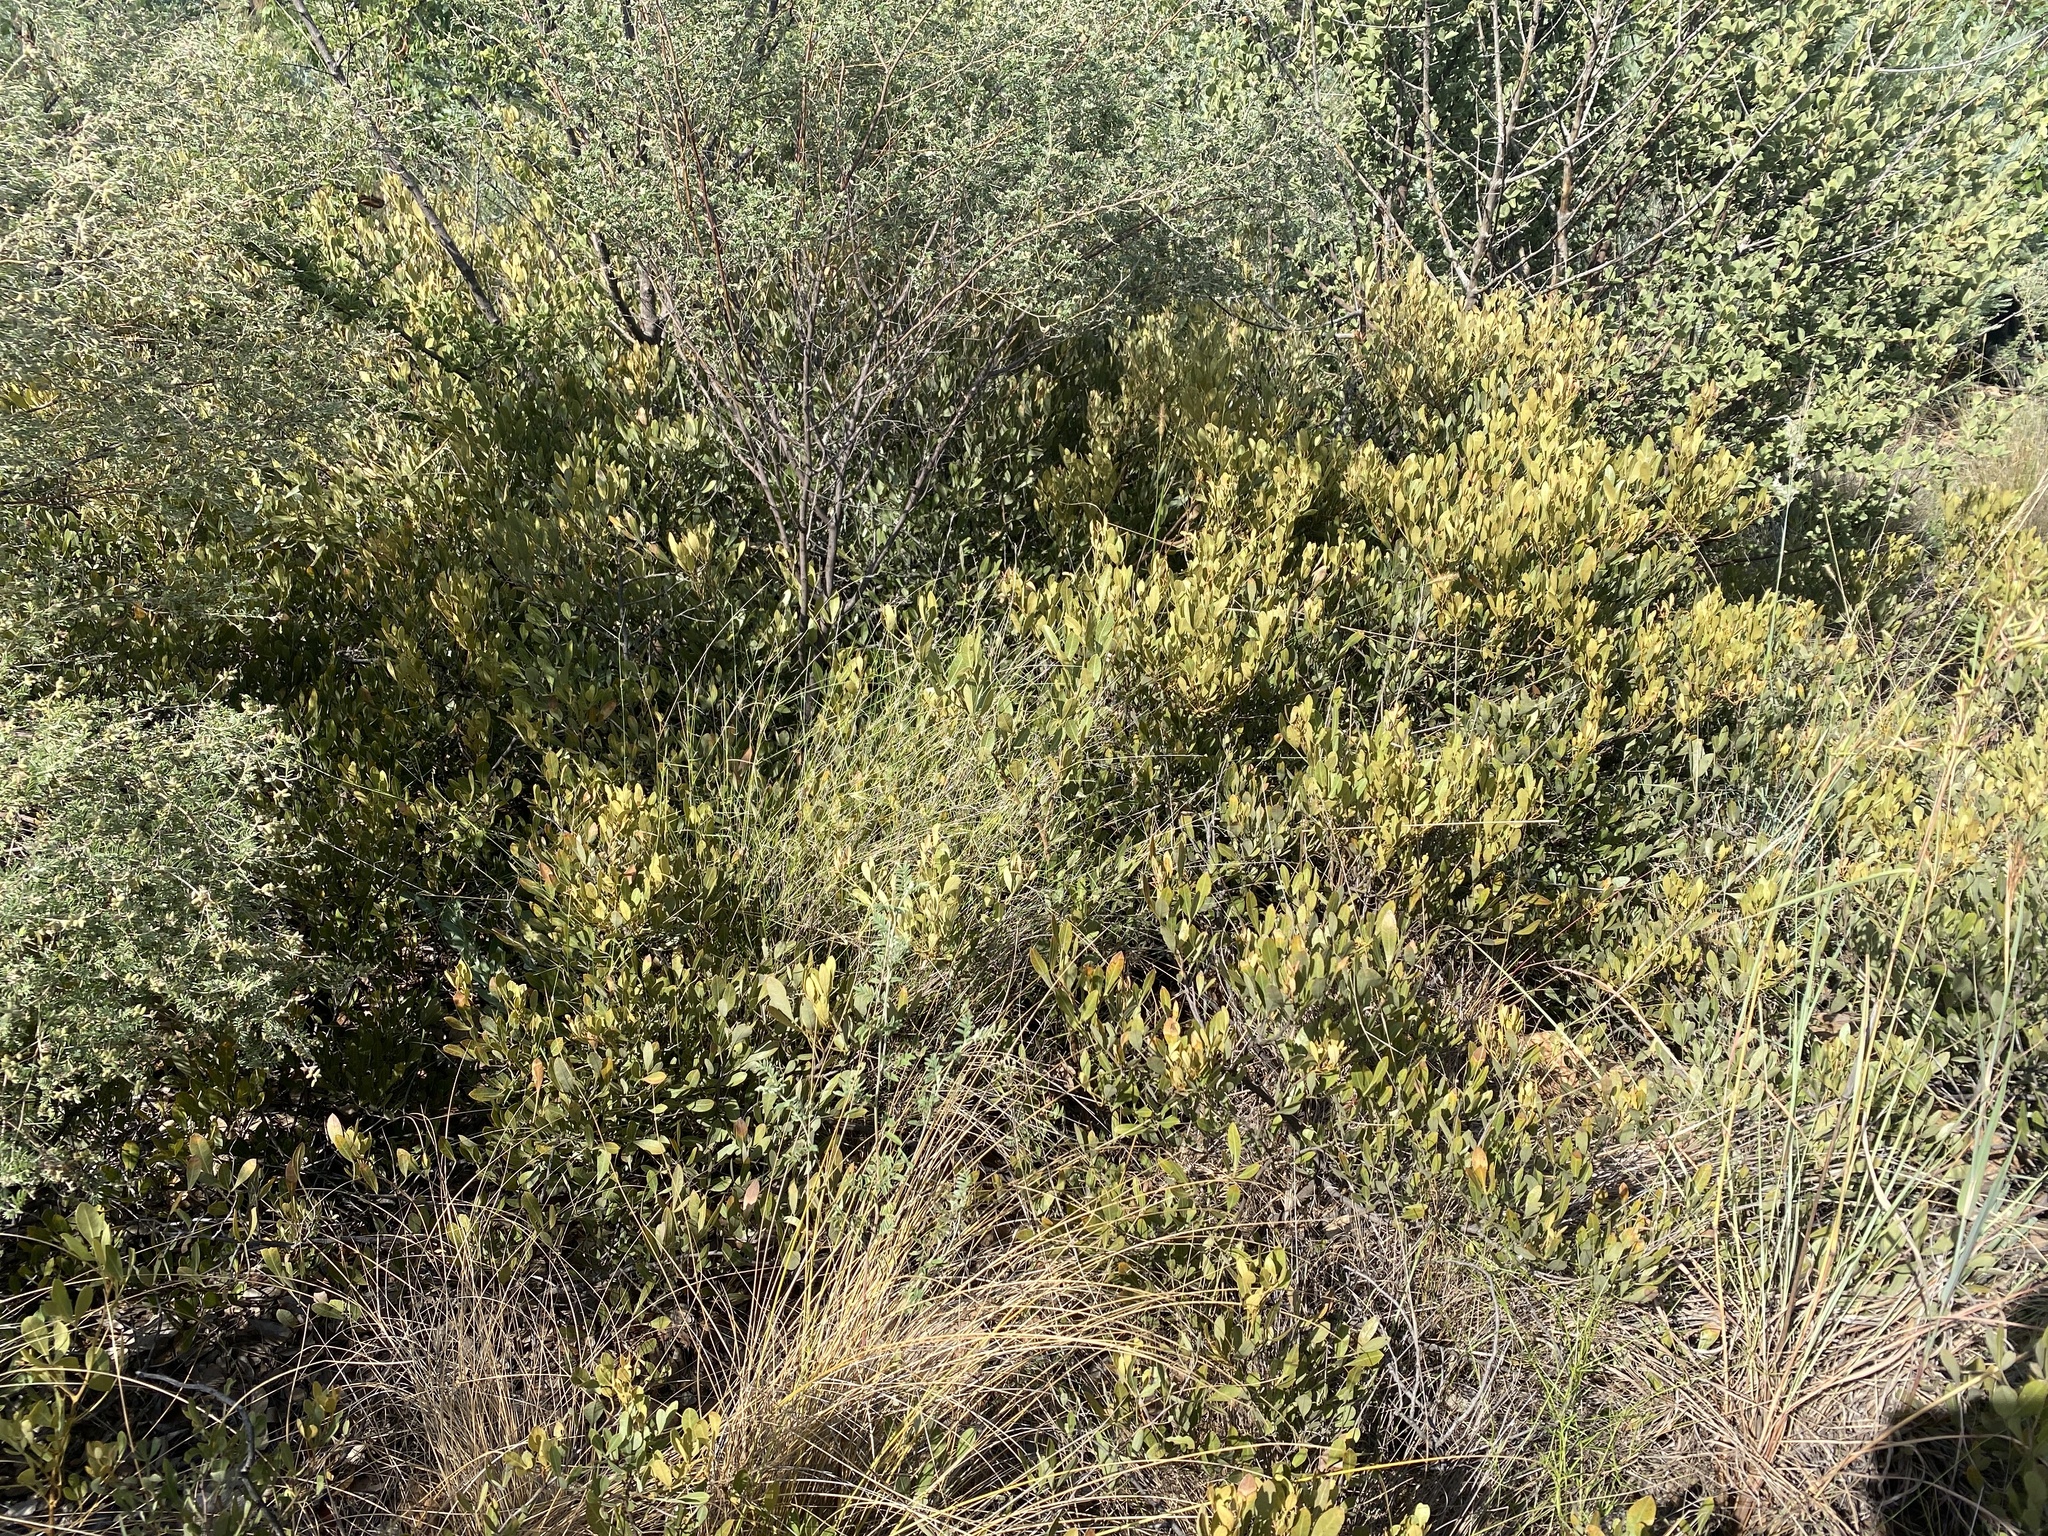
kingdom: Plantae
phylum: Tracheophyta
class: Magnoliopsida
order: Sapindales
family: Anacardiaceae
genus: Searsia
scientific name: Searsia magalismontana
